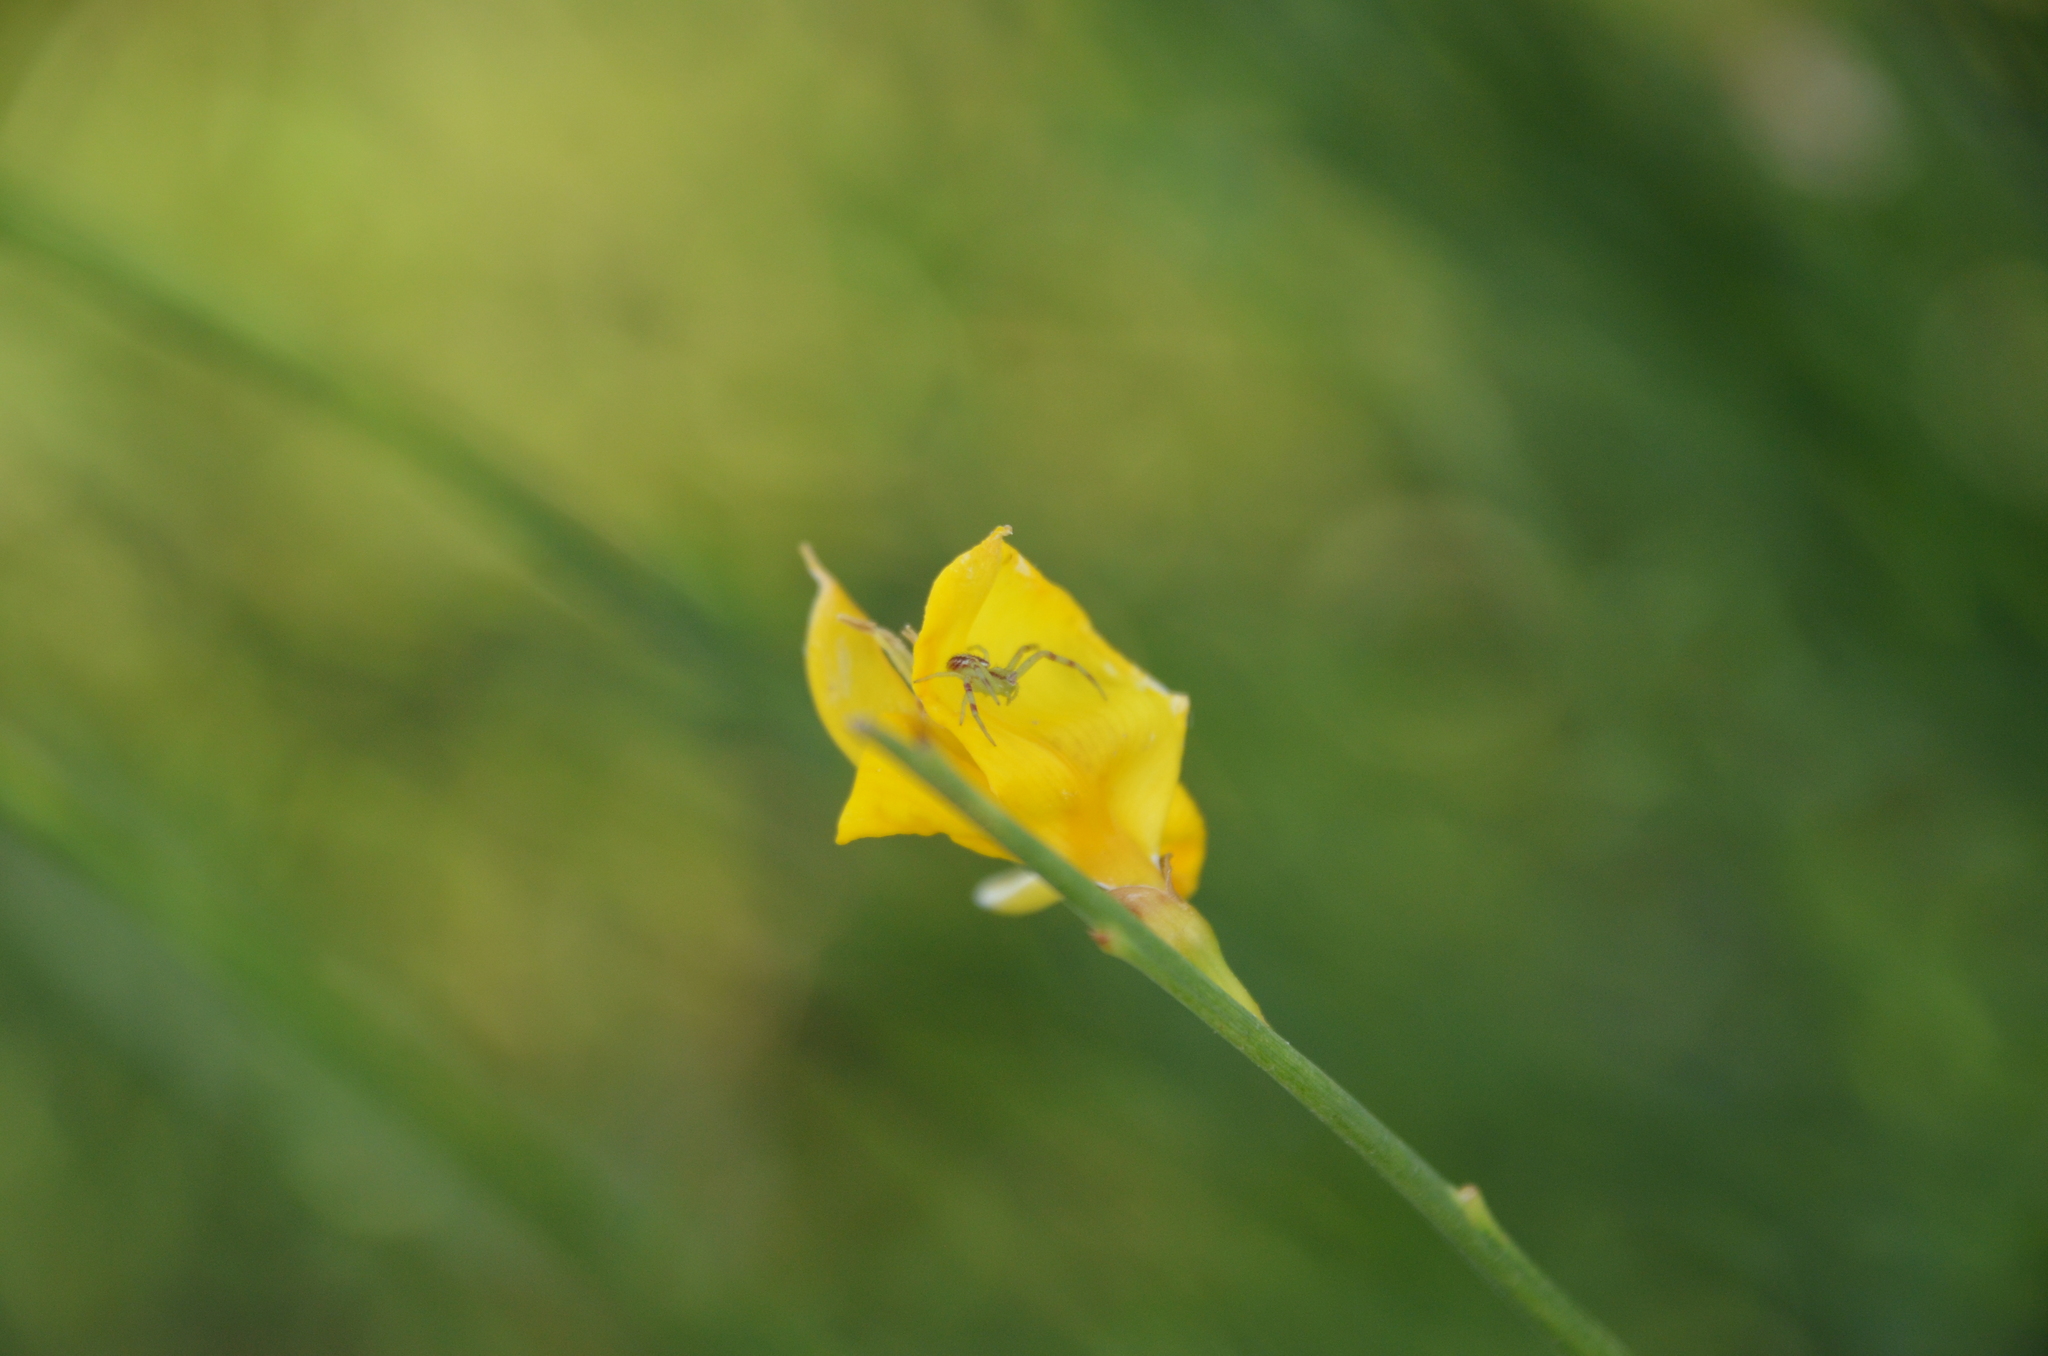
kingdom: Animalia
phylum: Arthropoda
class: Arachnida
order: Araneae
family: Thomisidae
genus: Misumenops
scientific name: Misumenops
